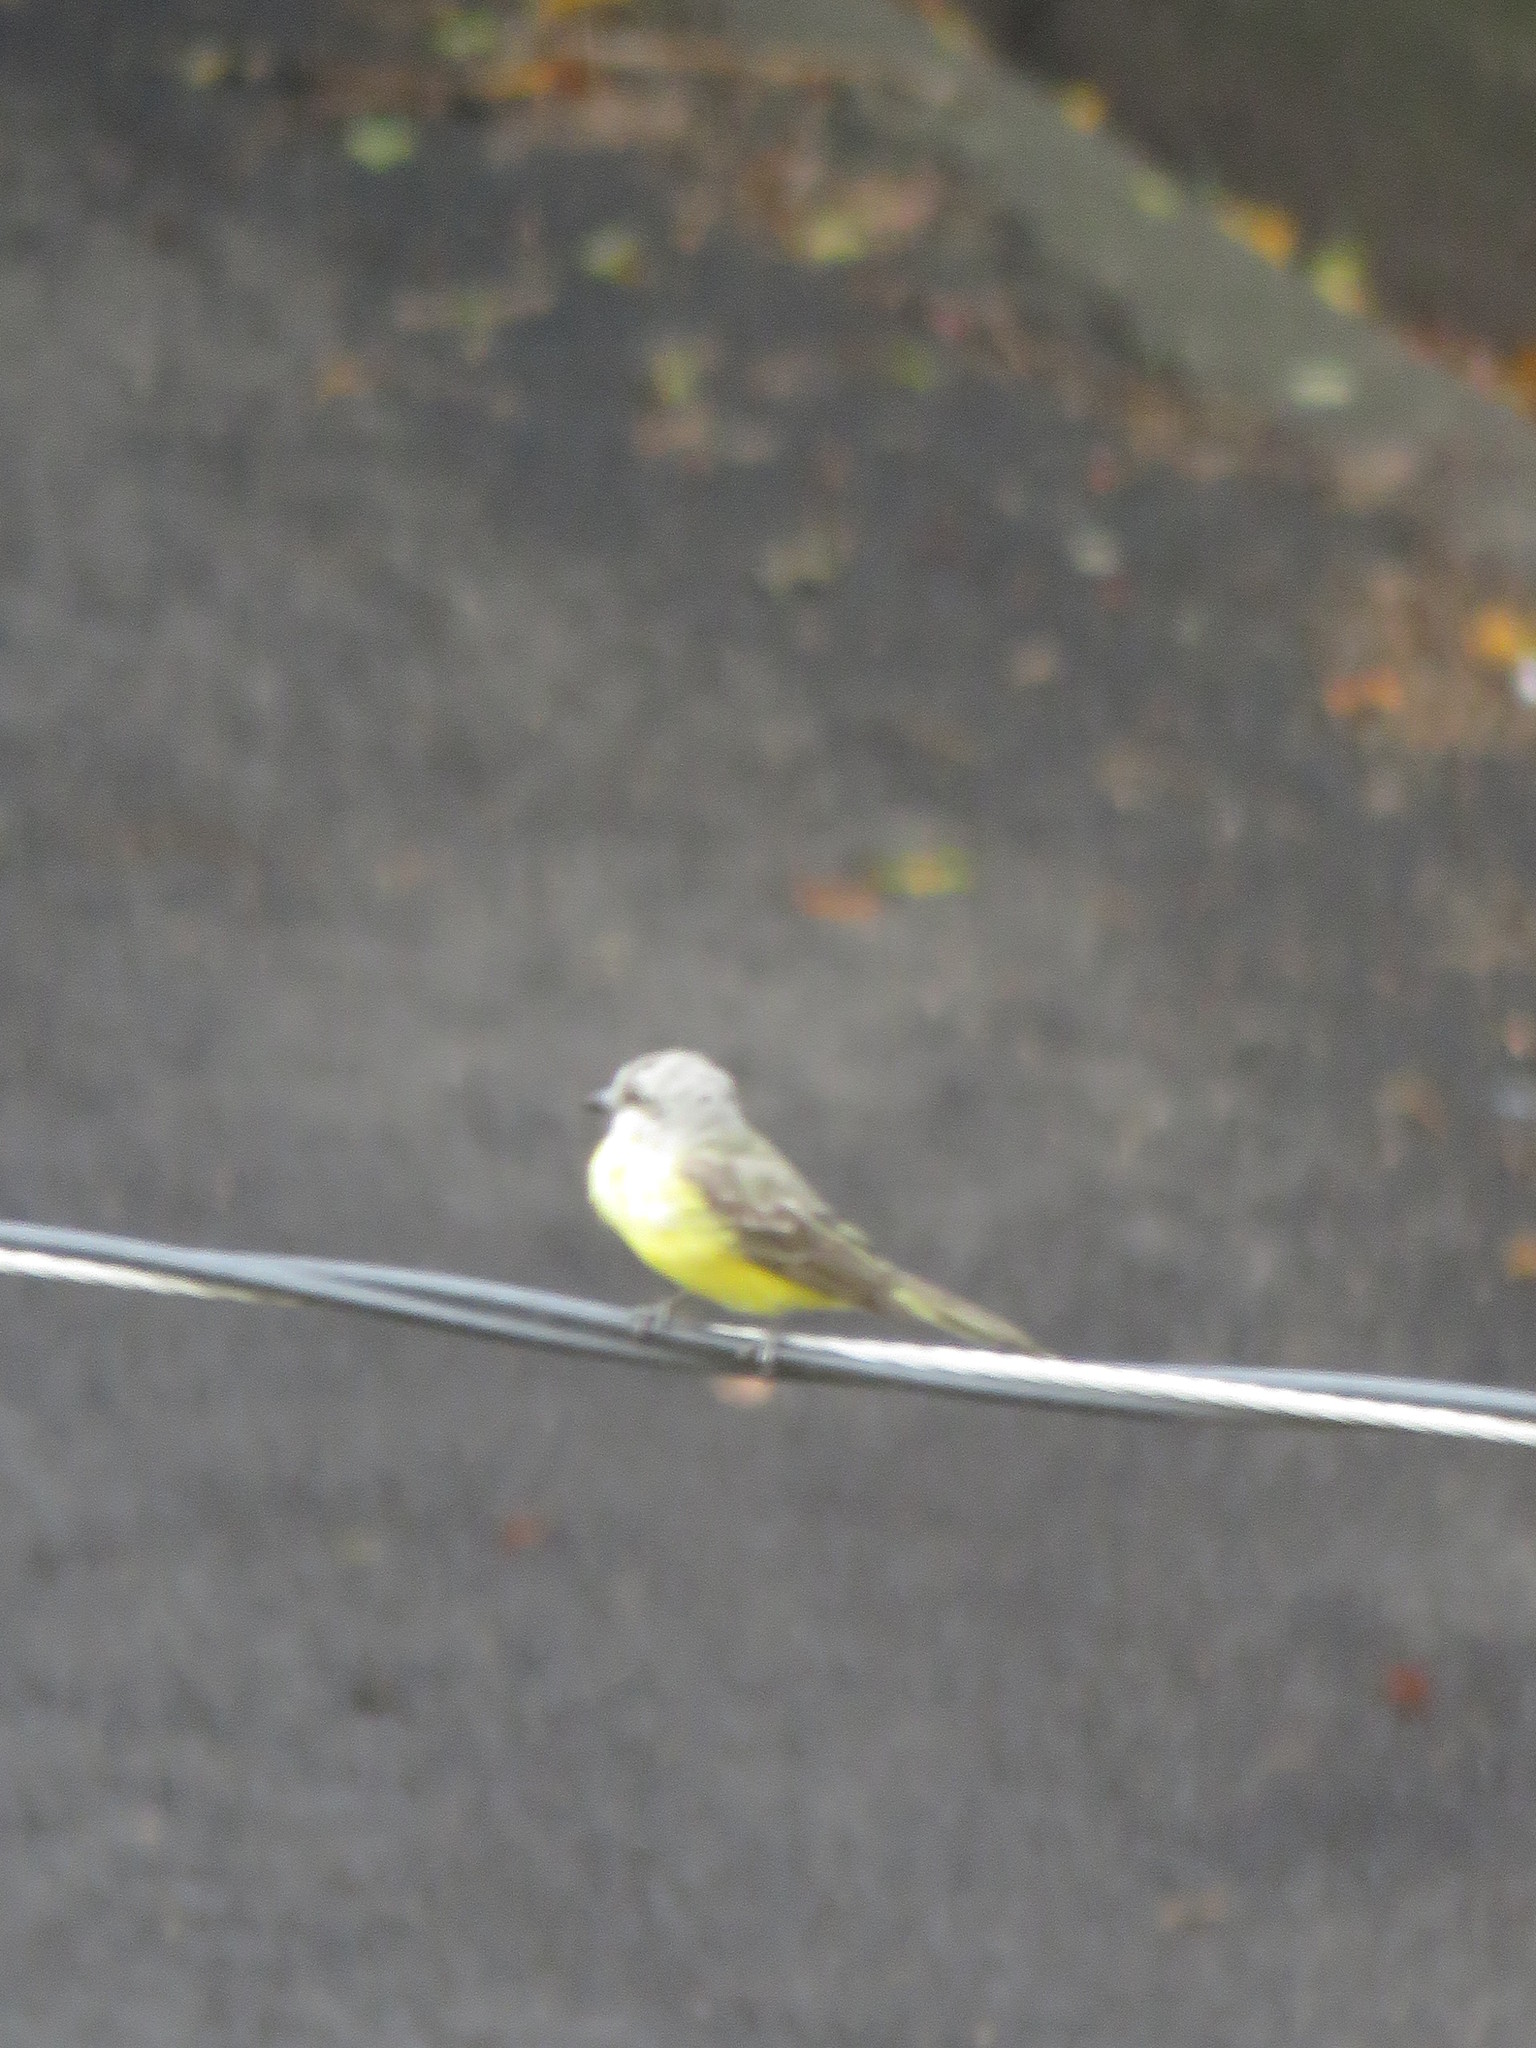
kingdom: Animalia
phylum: Chordata
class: Aves
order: Passeriformes
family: Tyrannidae
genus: Tyrannus
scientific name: Tyrannus melancholicus
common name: Tropical kingbird
